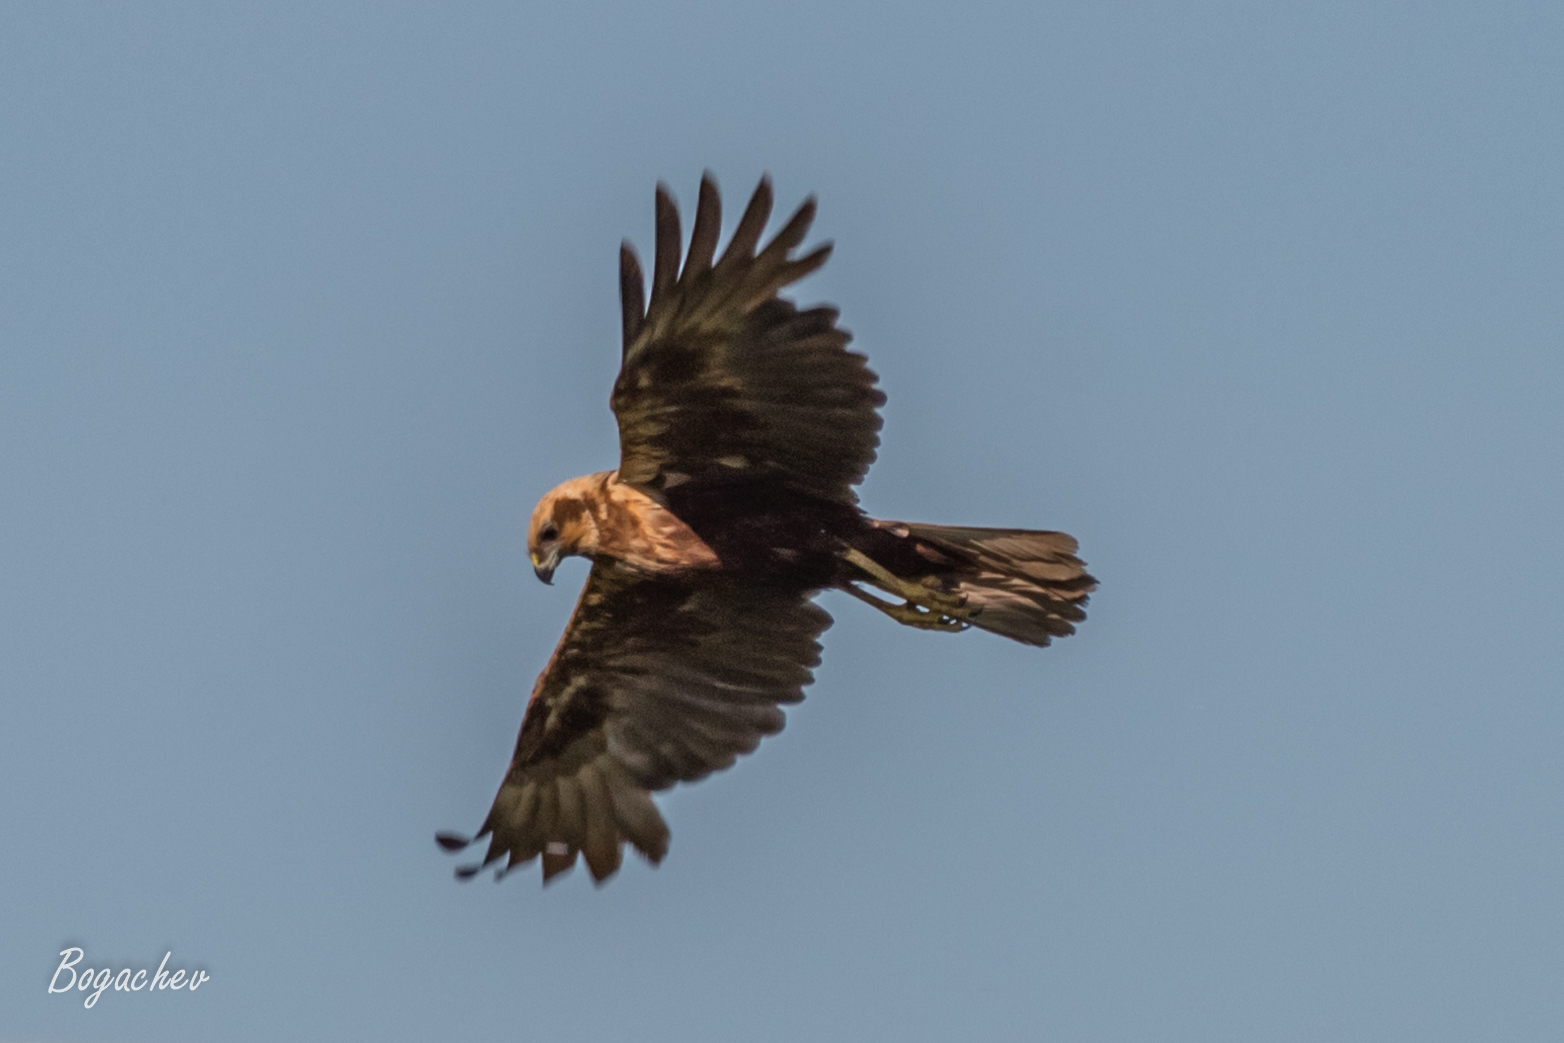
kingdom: Animalia
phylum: Chordata
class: Aves
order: Accipitriformes
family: Accipitridae
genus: Circus
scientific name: Circus aeruginosus
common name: Western marsh harrier
